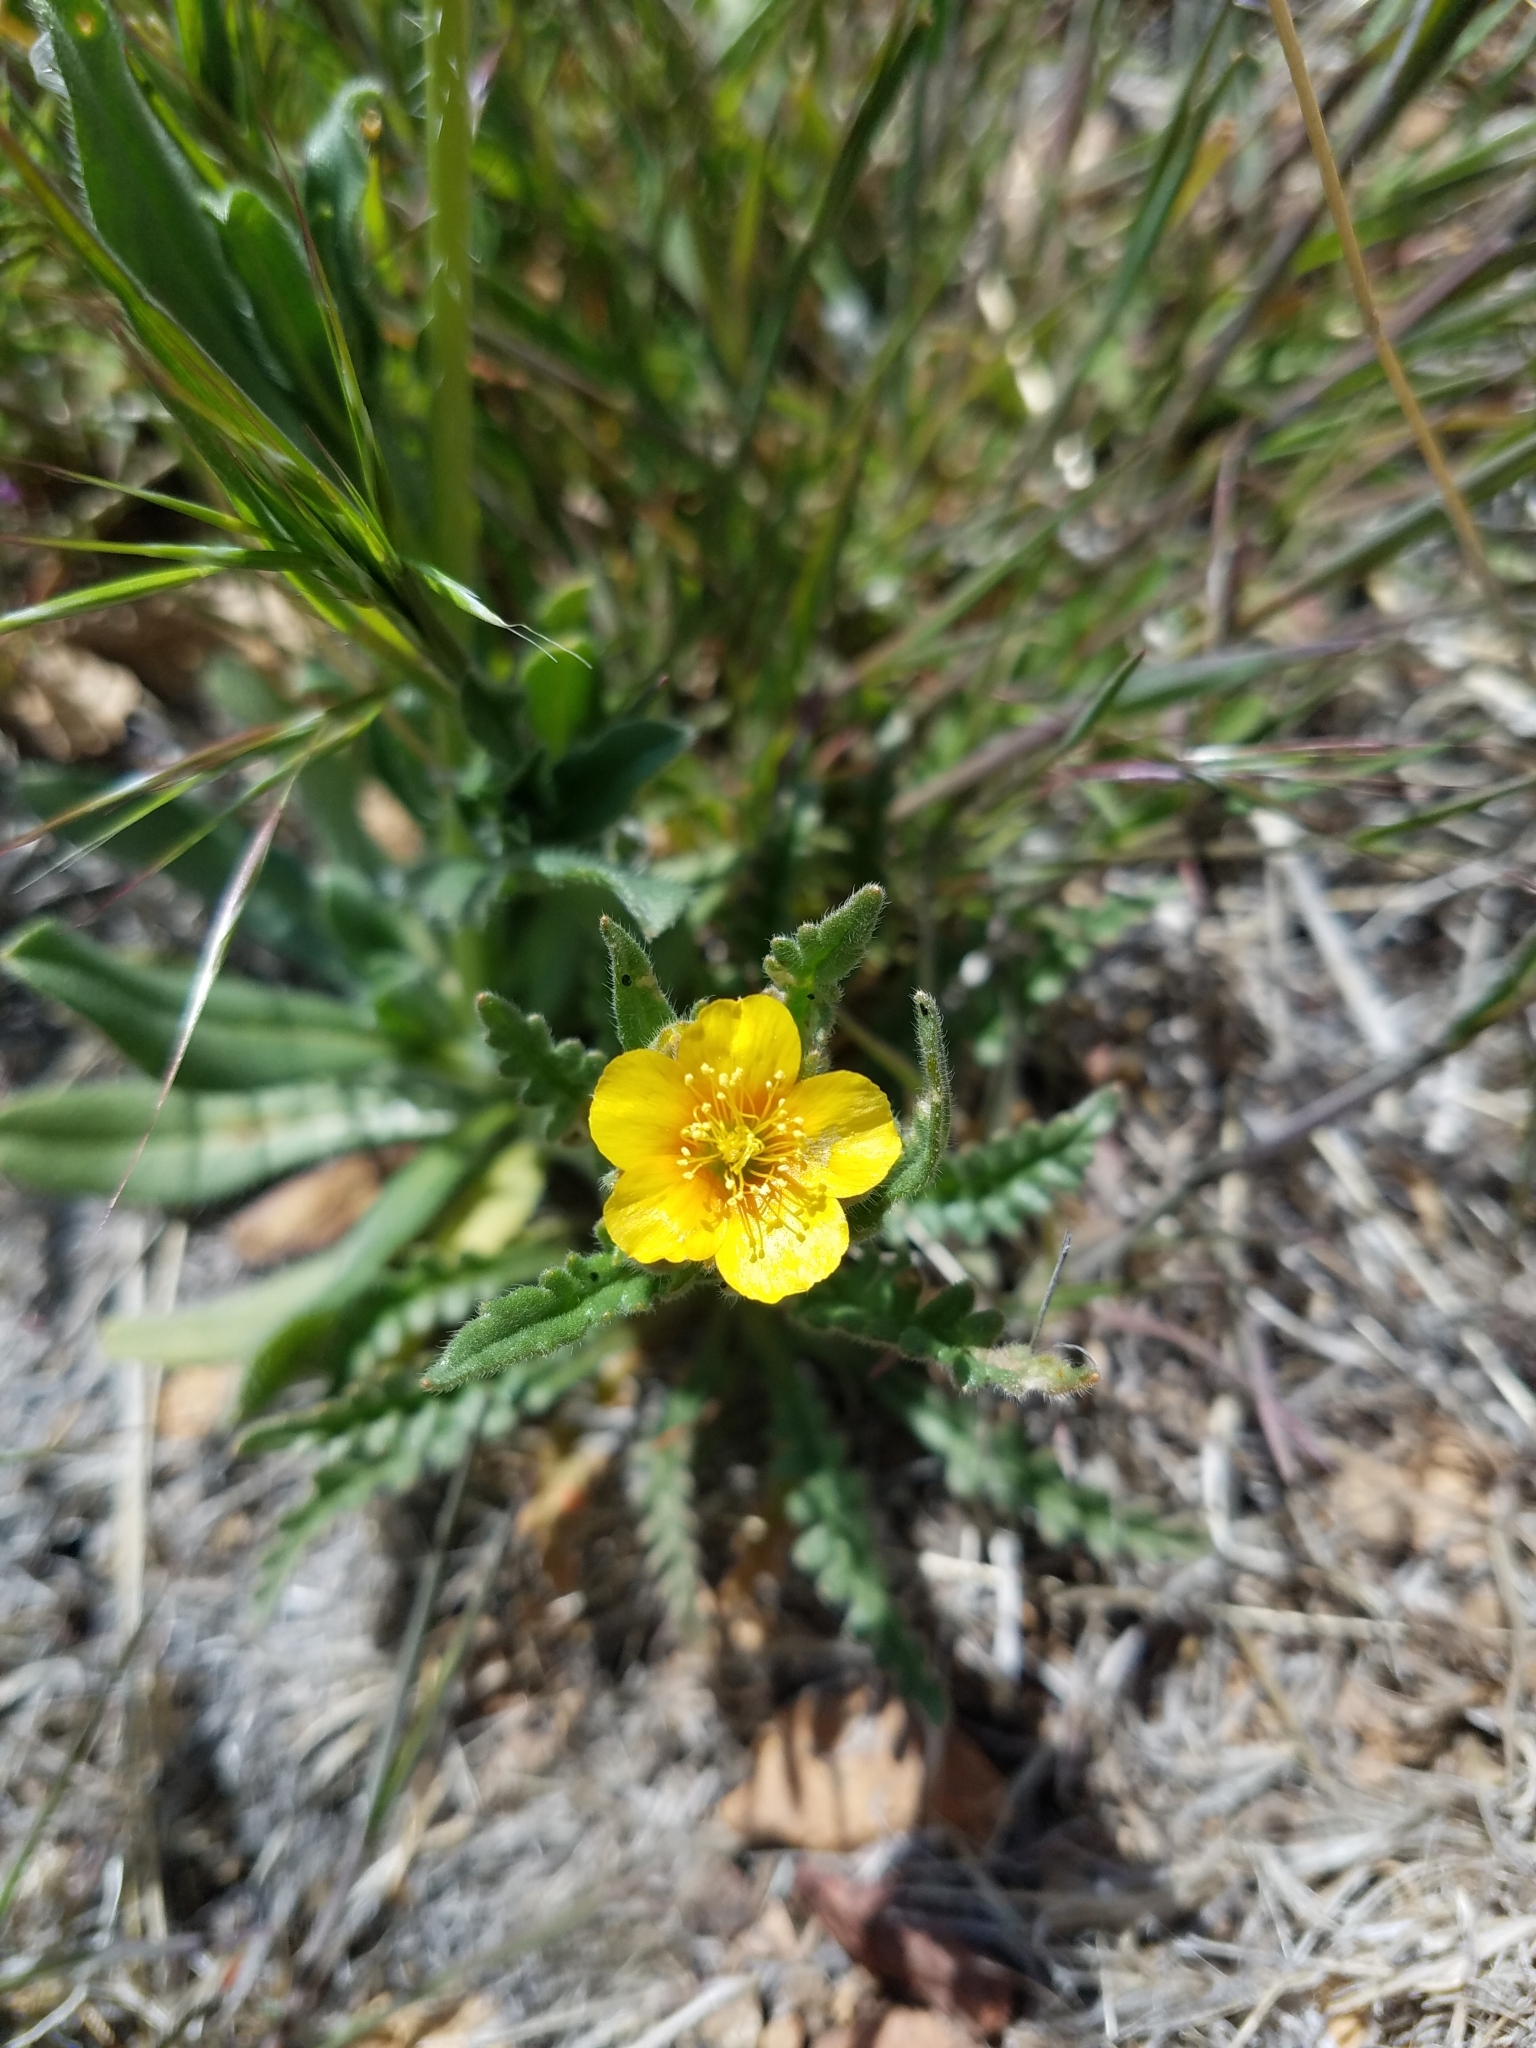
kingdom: Plantae
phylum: Tracheophyta
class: Magnoliopsida
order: Cornales
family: Loasaceae
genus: Mentzelia
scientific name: Mentzelia albicaulis
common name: White-stem blazingstar
